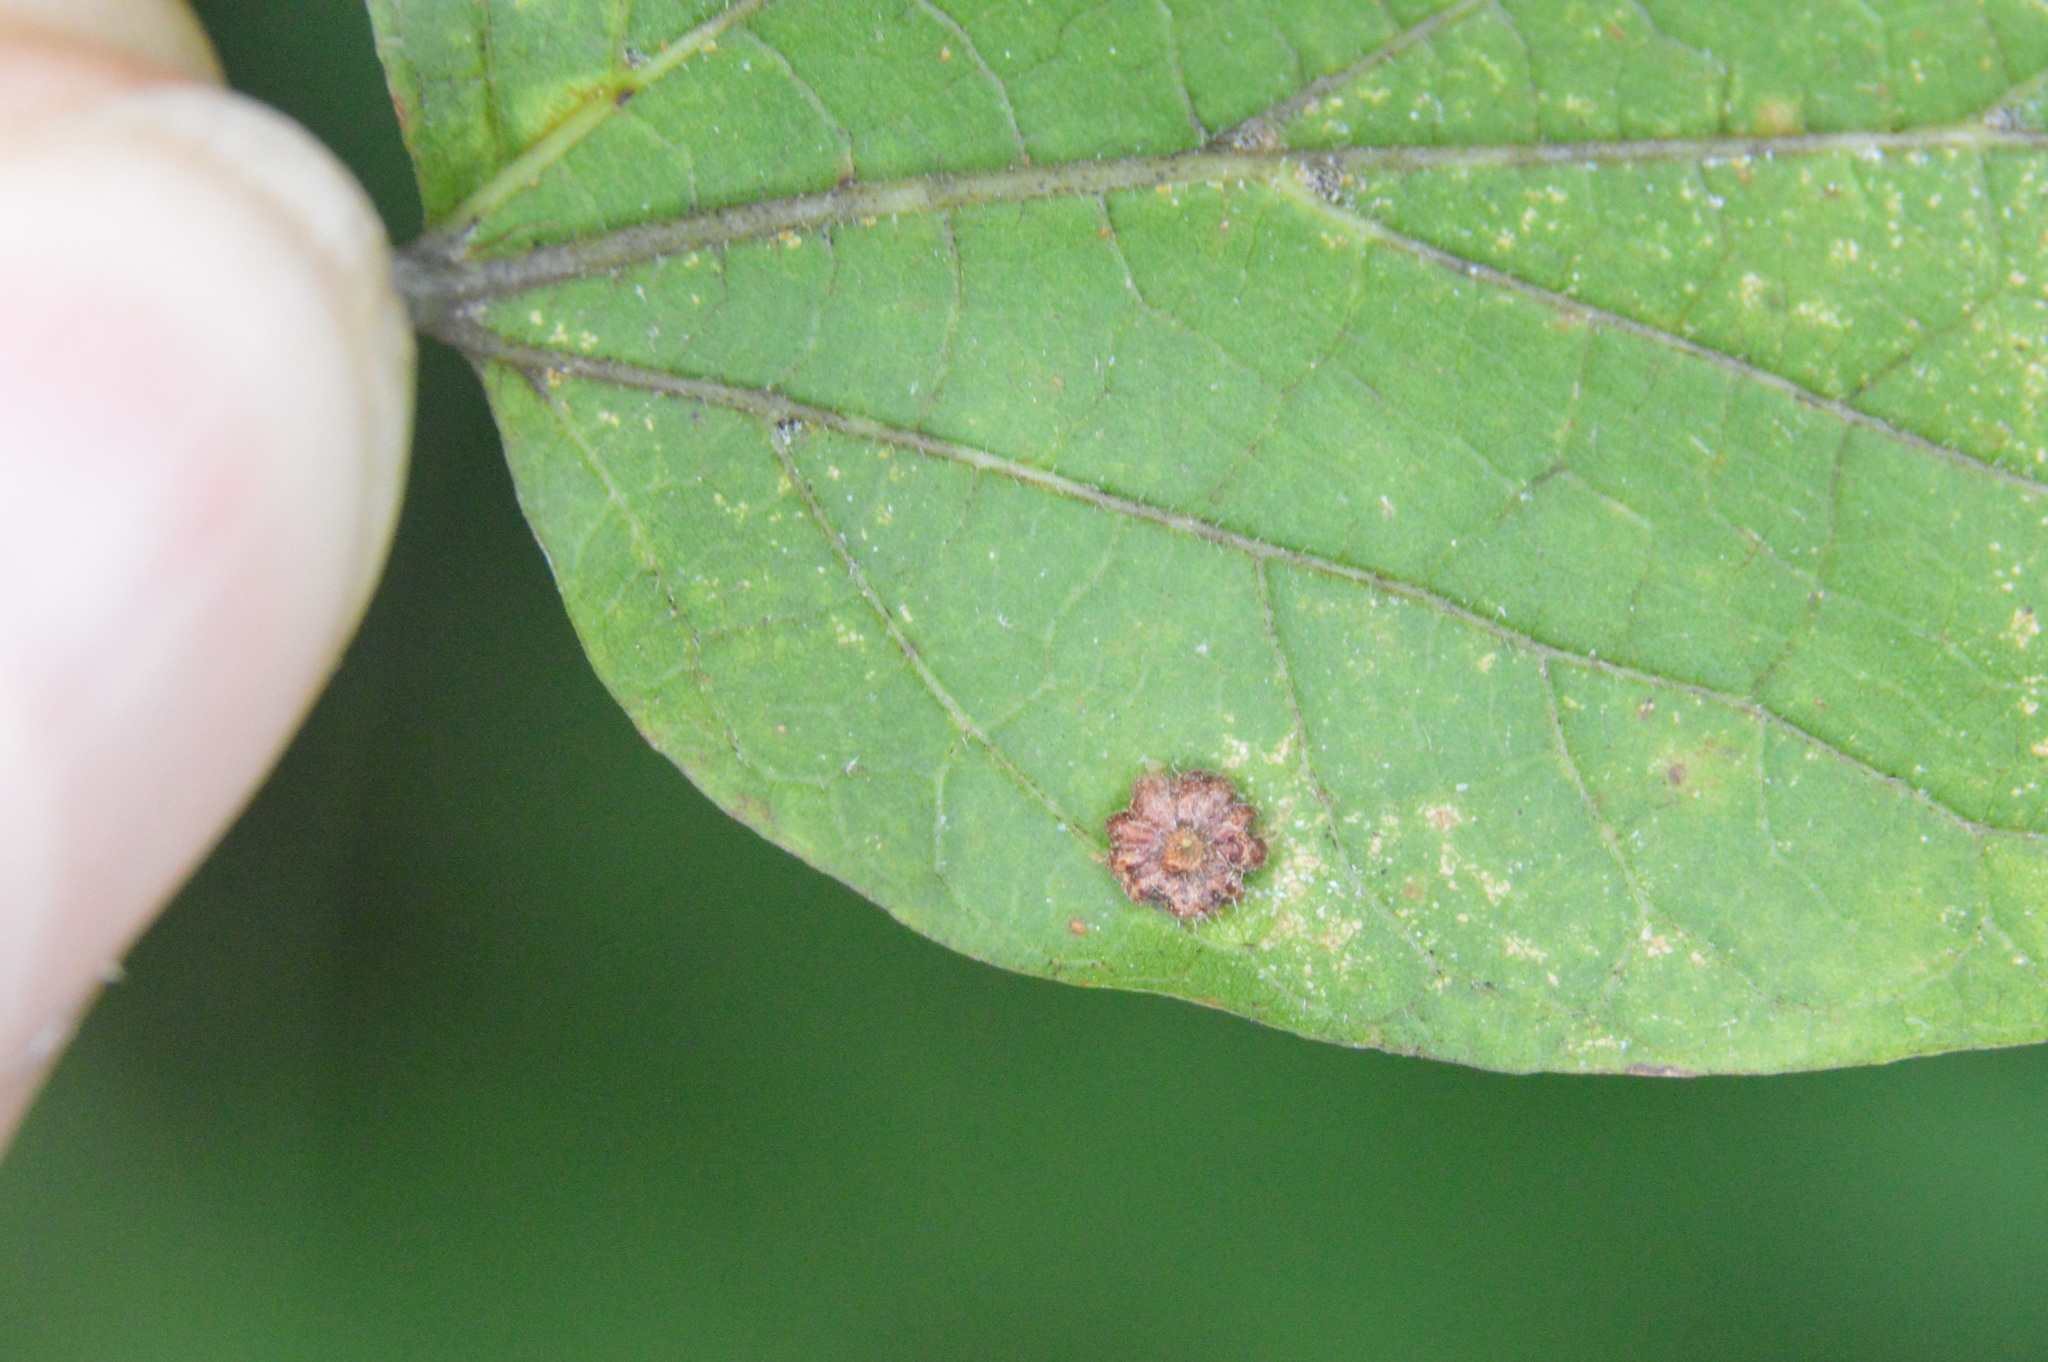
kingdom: Animalia
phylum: Arthropoda
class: Insecta
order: Diptera
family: Cecidomyiidae
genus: Celticecis
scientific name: Celticecis capsularis
